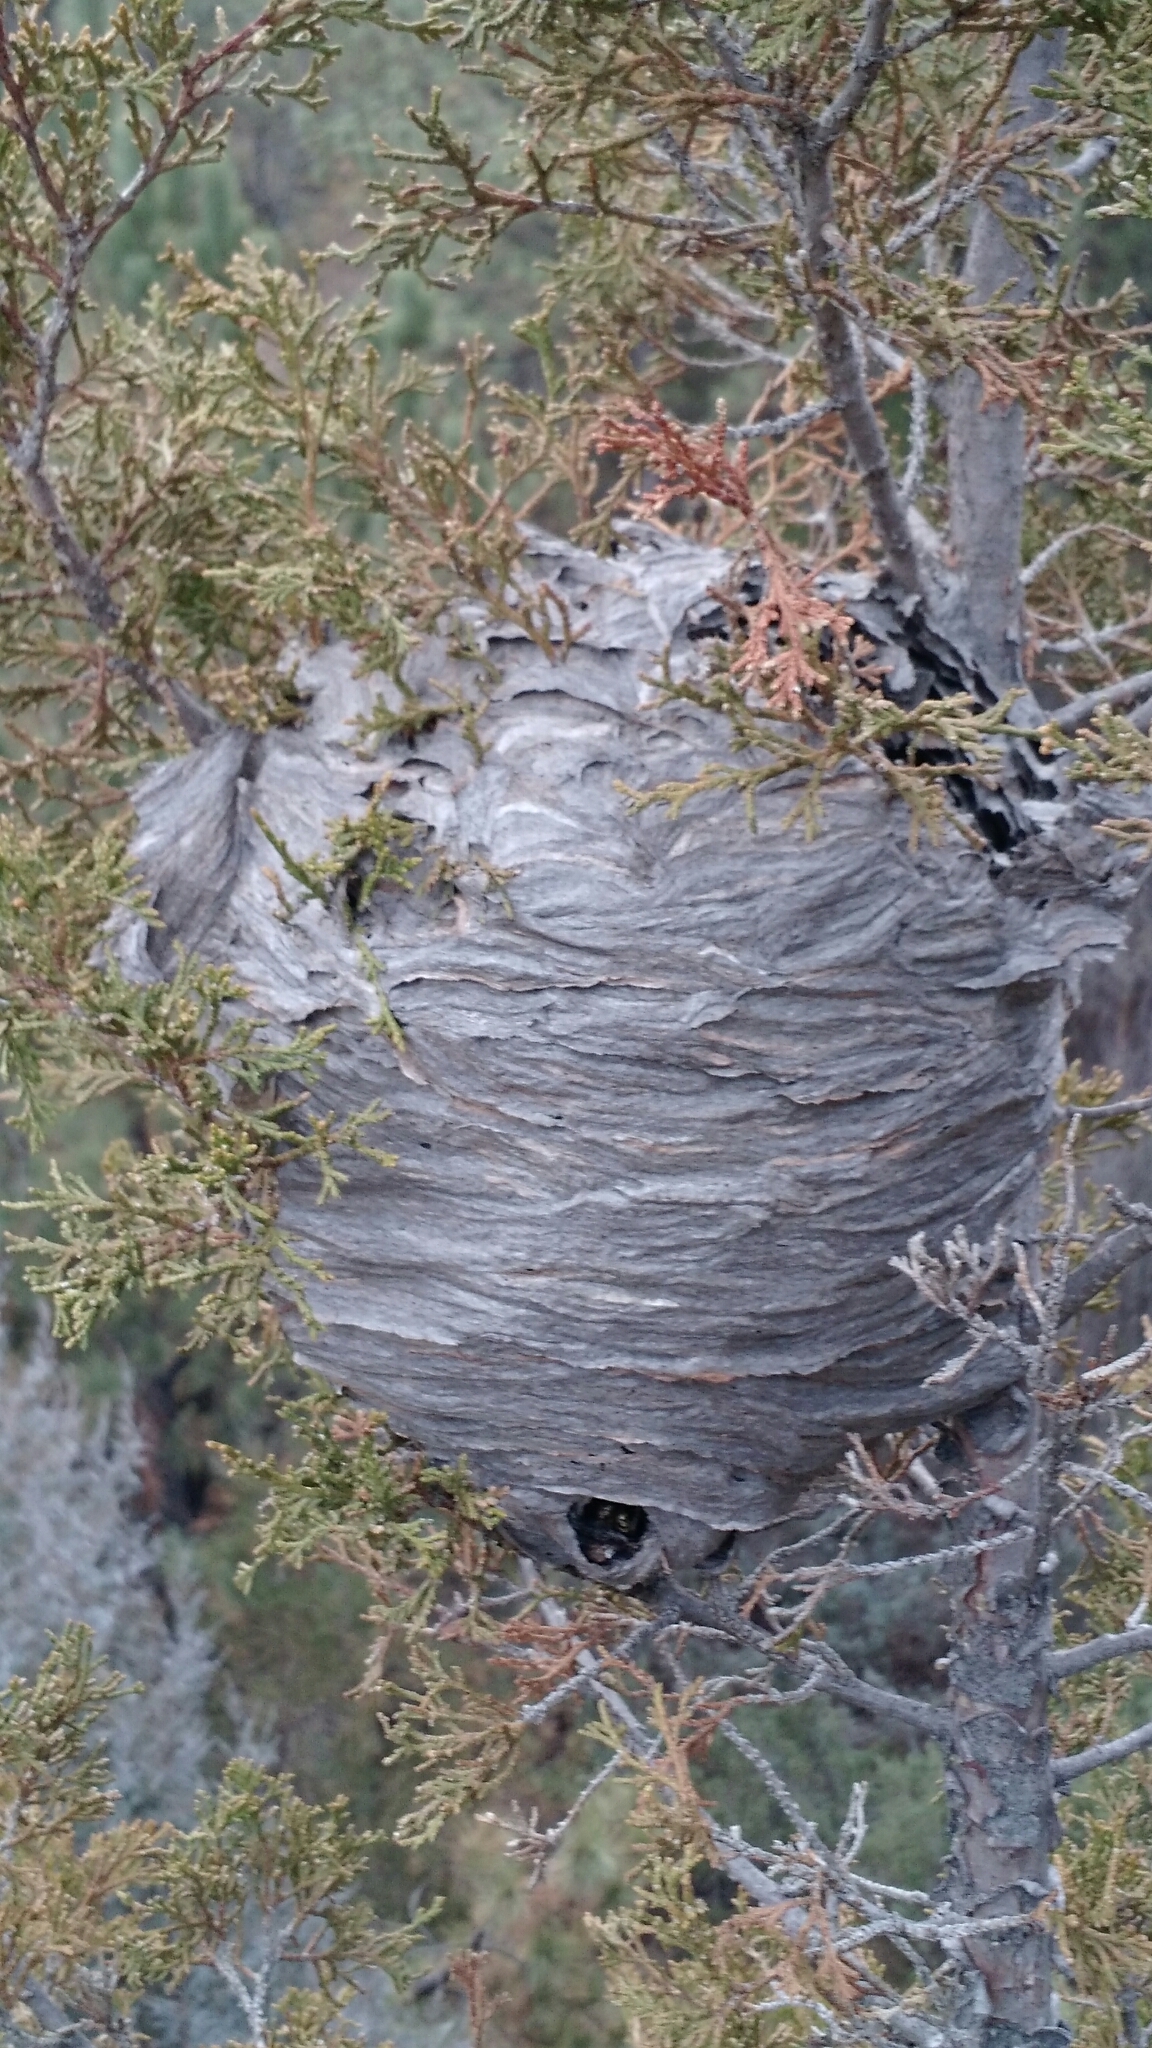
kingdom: Animalia
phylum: Arthropoda
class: Insecta
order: Hymenoptera
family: Vespidae
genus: Dolichovespula
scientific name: Dolichovespula
